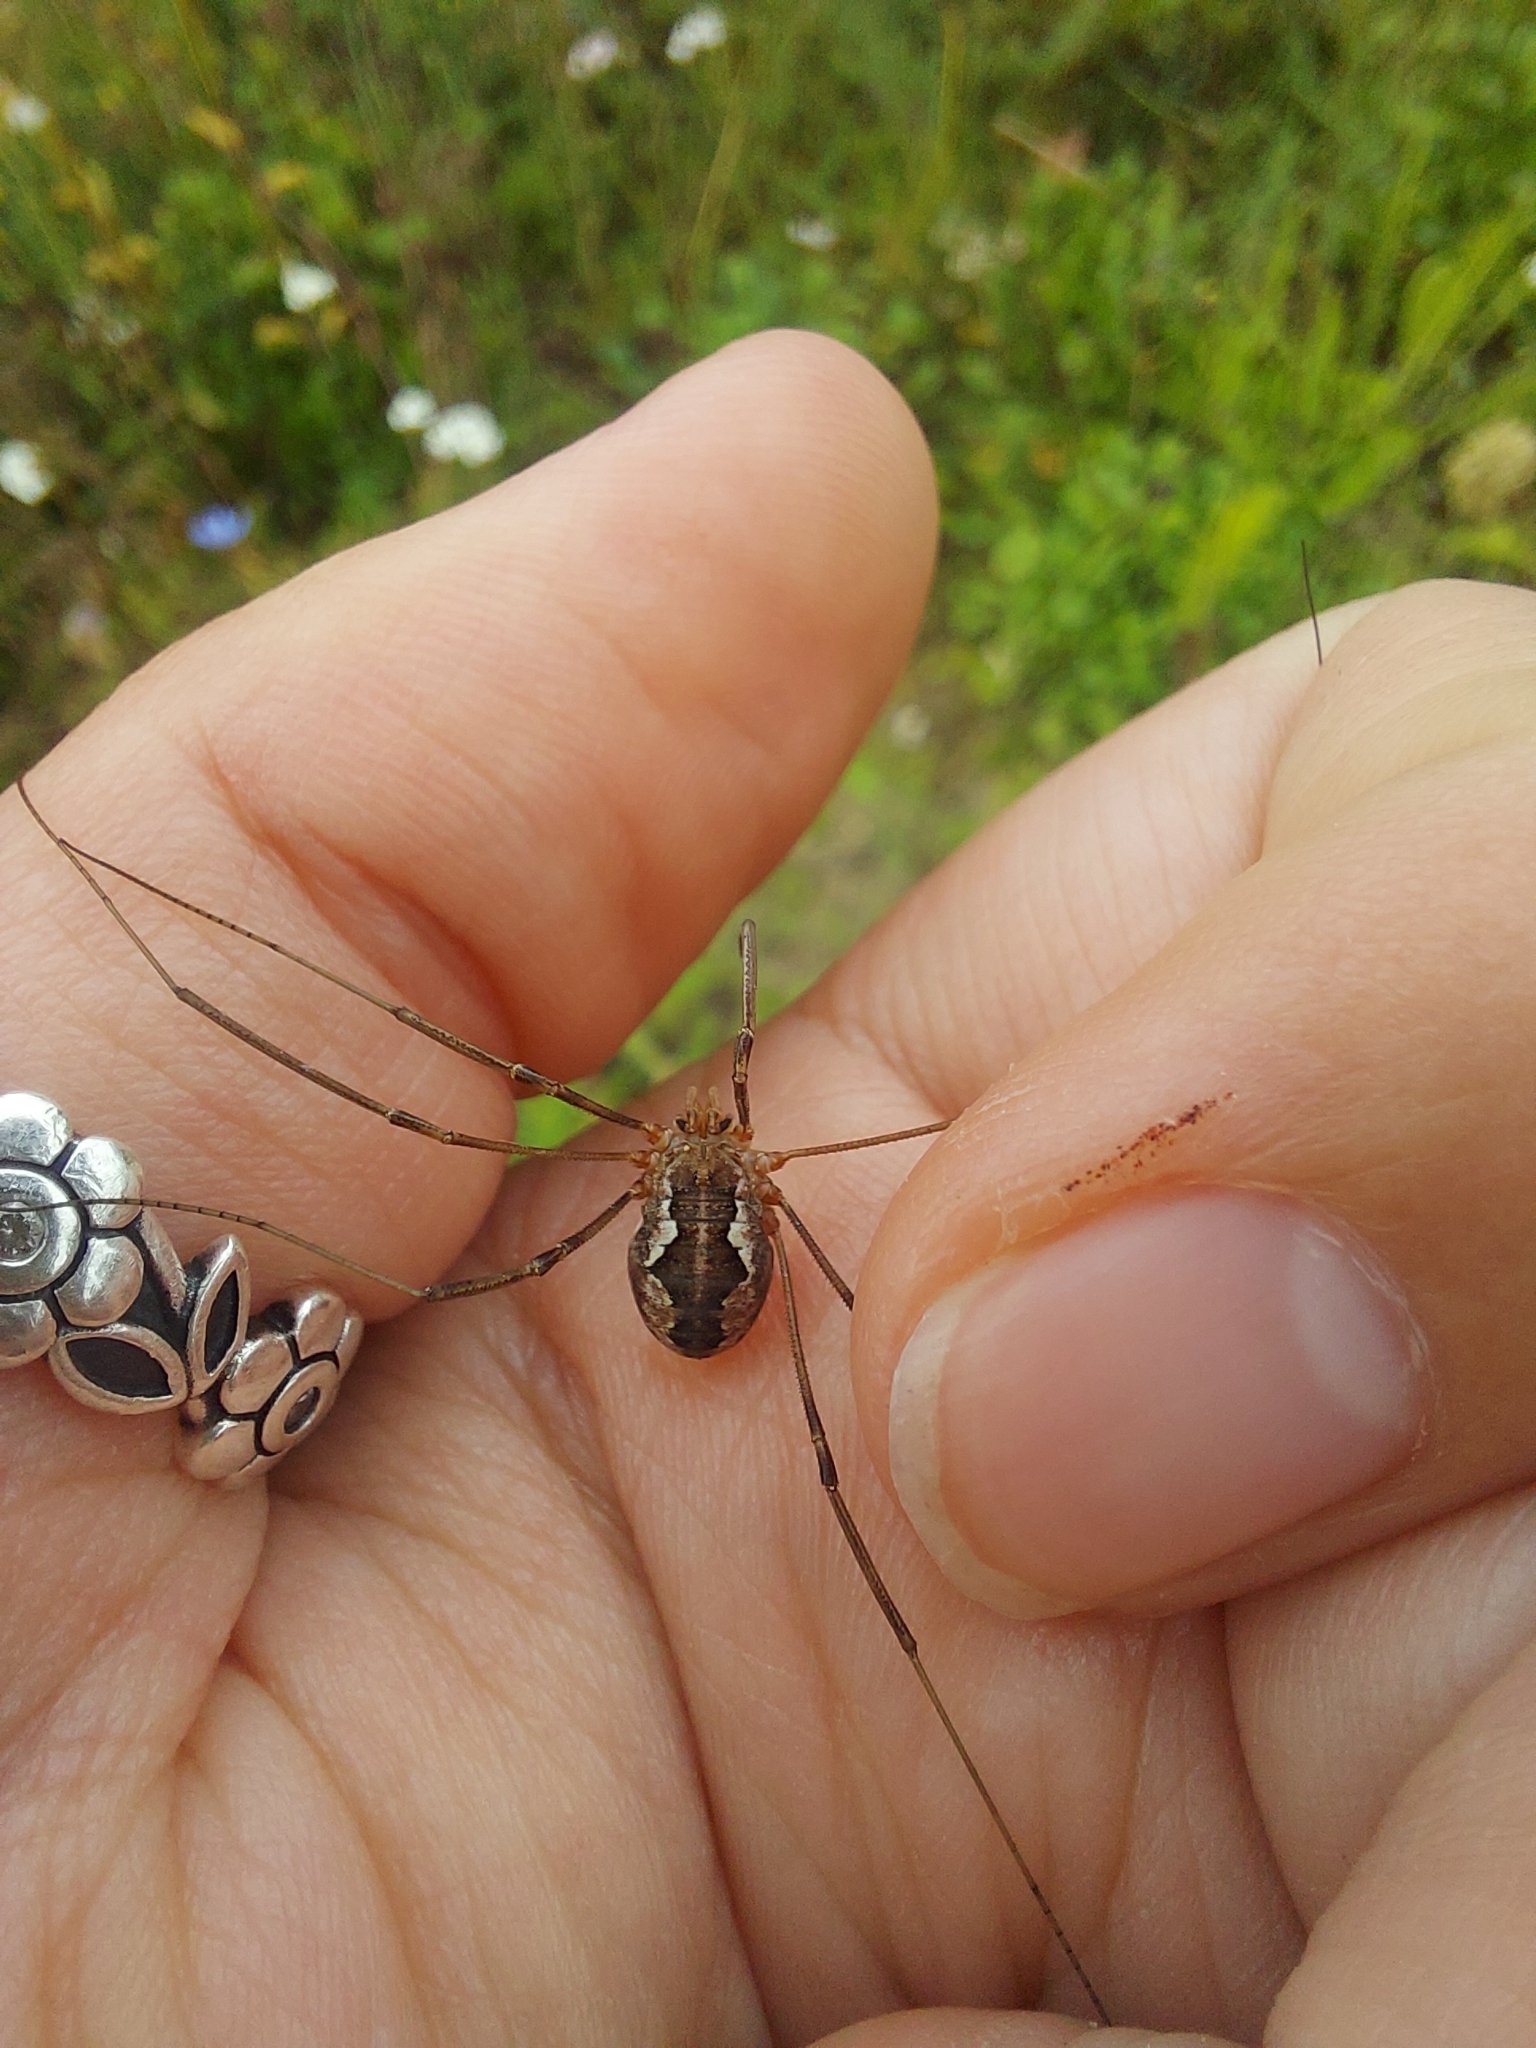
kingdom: Animalia
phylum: Arthropoda
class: Arachnida
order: Opiliones
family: Phalangiidae
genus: Phalangium
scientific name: Phalangium opilio
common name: Daddy longleg
